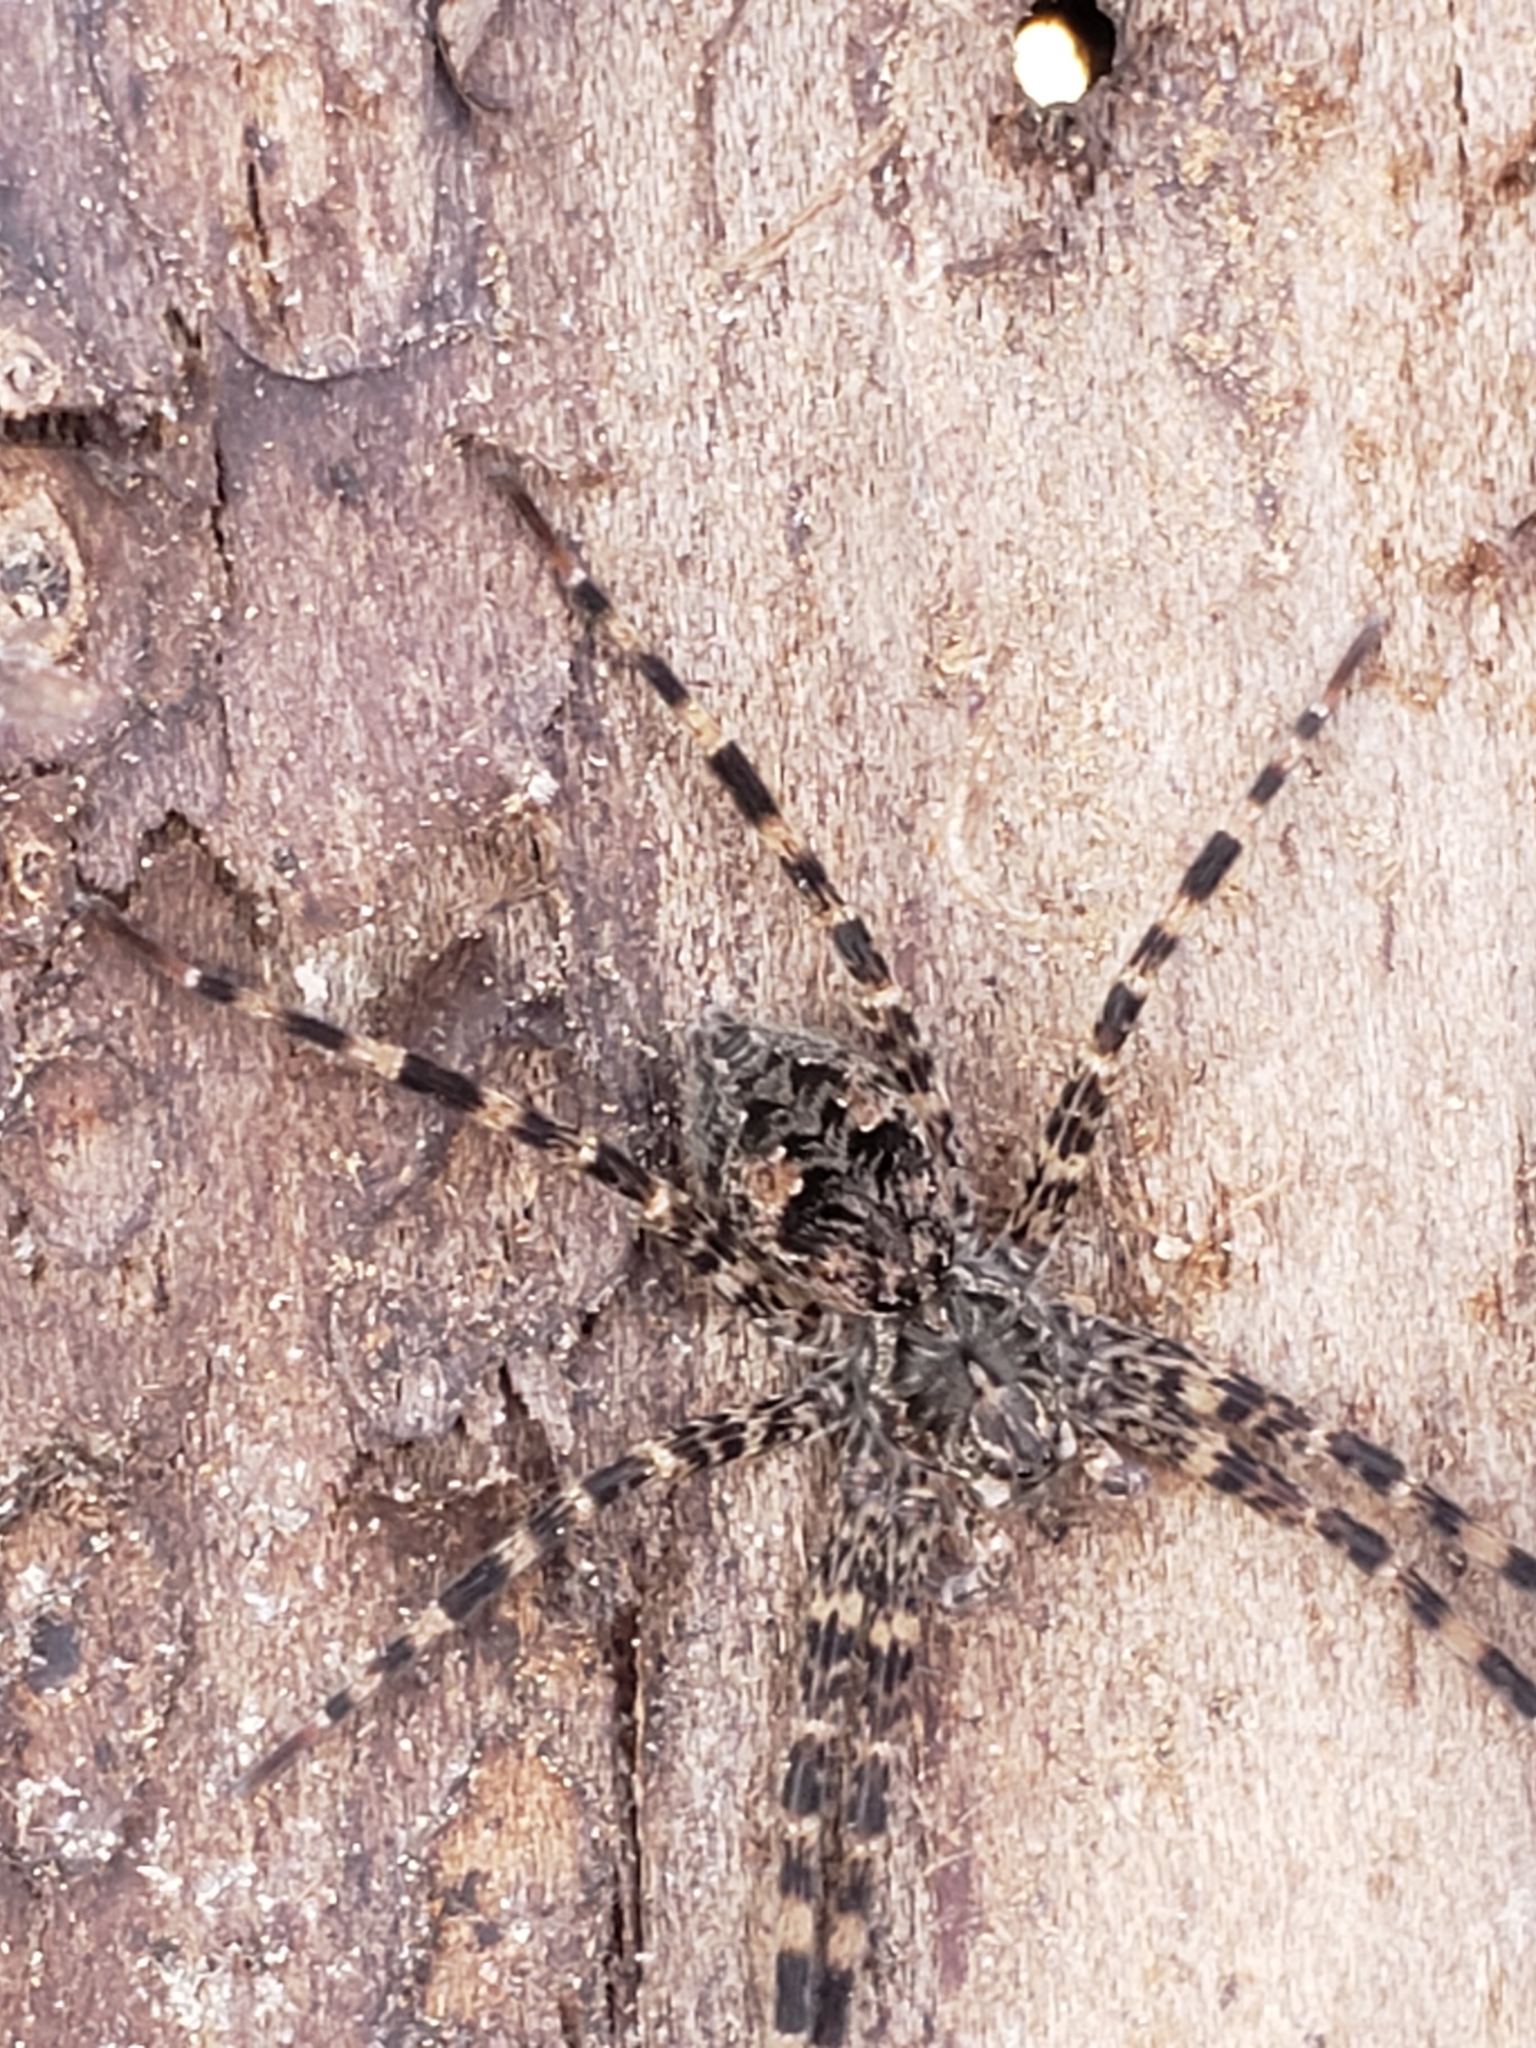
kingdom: Animalia
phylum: Arthropoda
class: Arachnida
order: Araneae
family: Pisauridae
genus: Dolomedes
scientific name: Dolomedes tenebrosus
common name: Dark fishing spider
